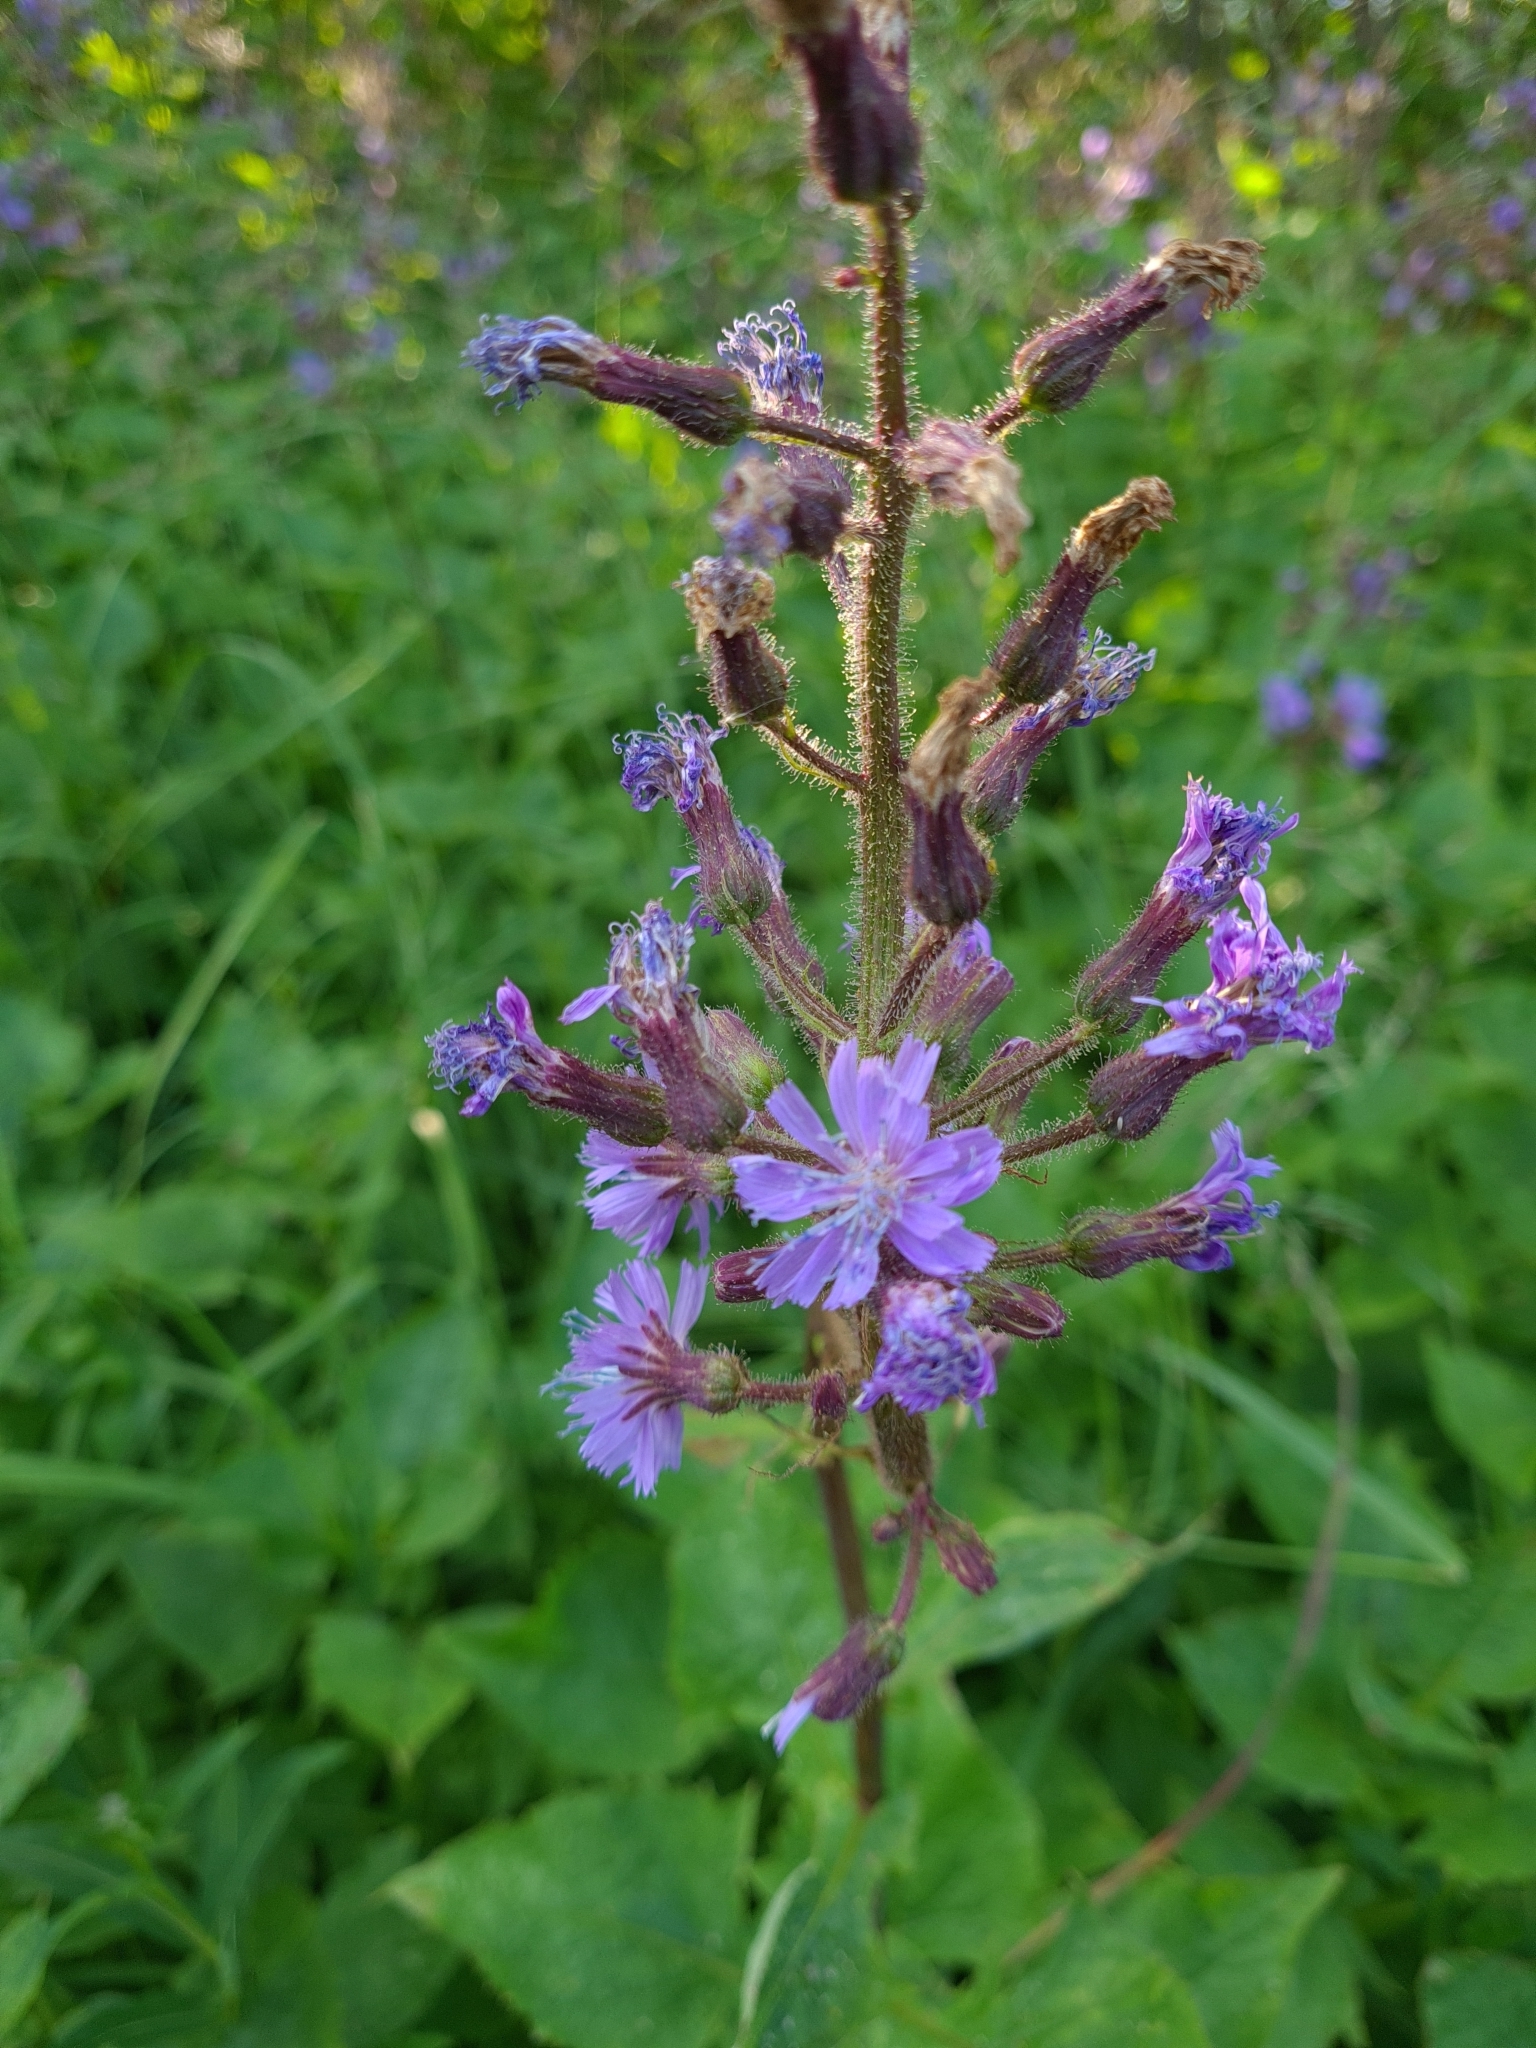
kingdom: Plantae
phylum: Tracheophyta
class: Magnoliopsida
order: Asterales
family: Asteraceae
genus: Cicerbita
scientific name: Cicerbita alpina
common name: Alpine blue-sow-thistle
